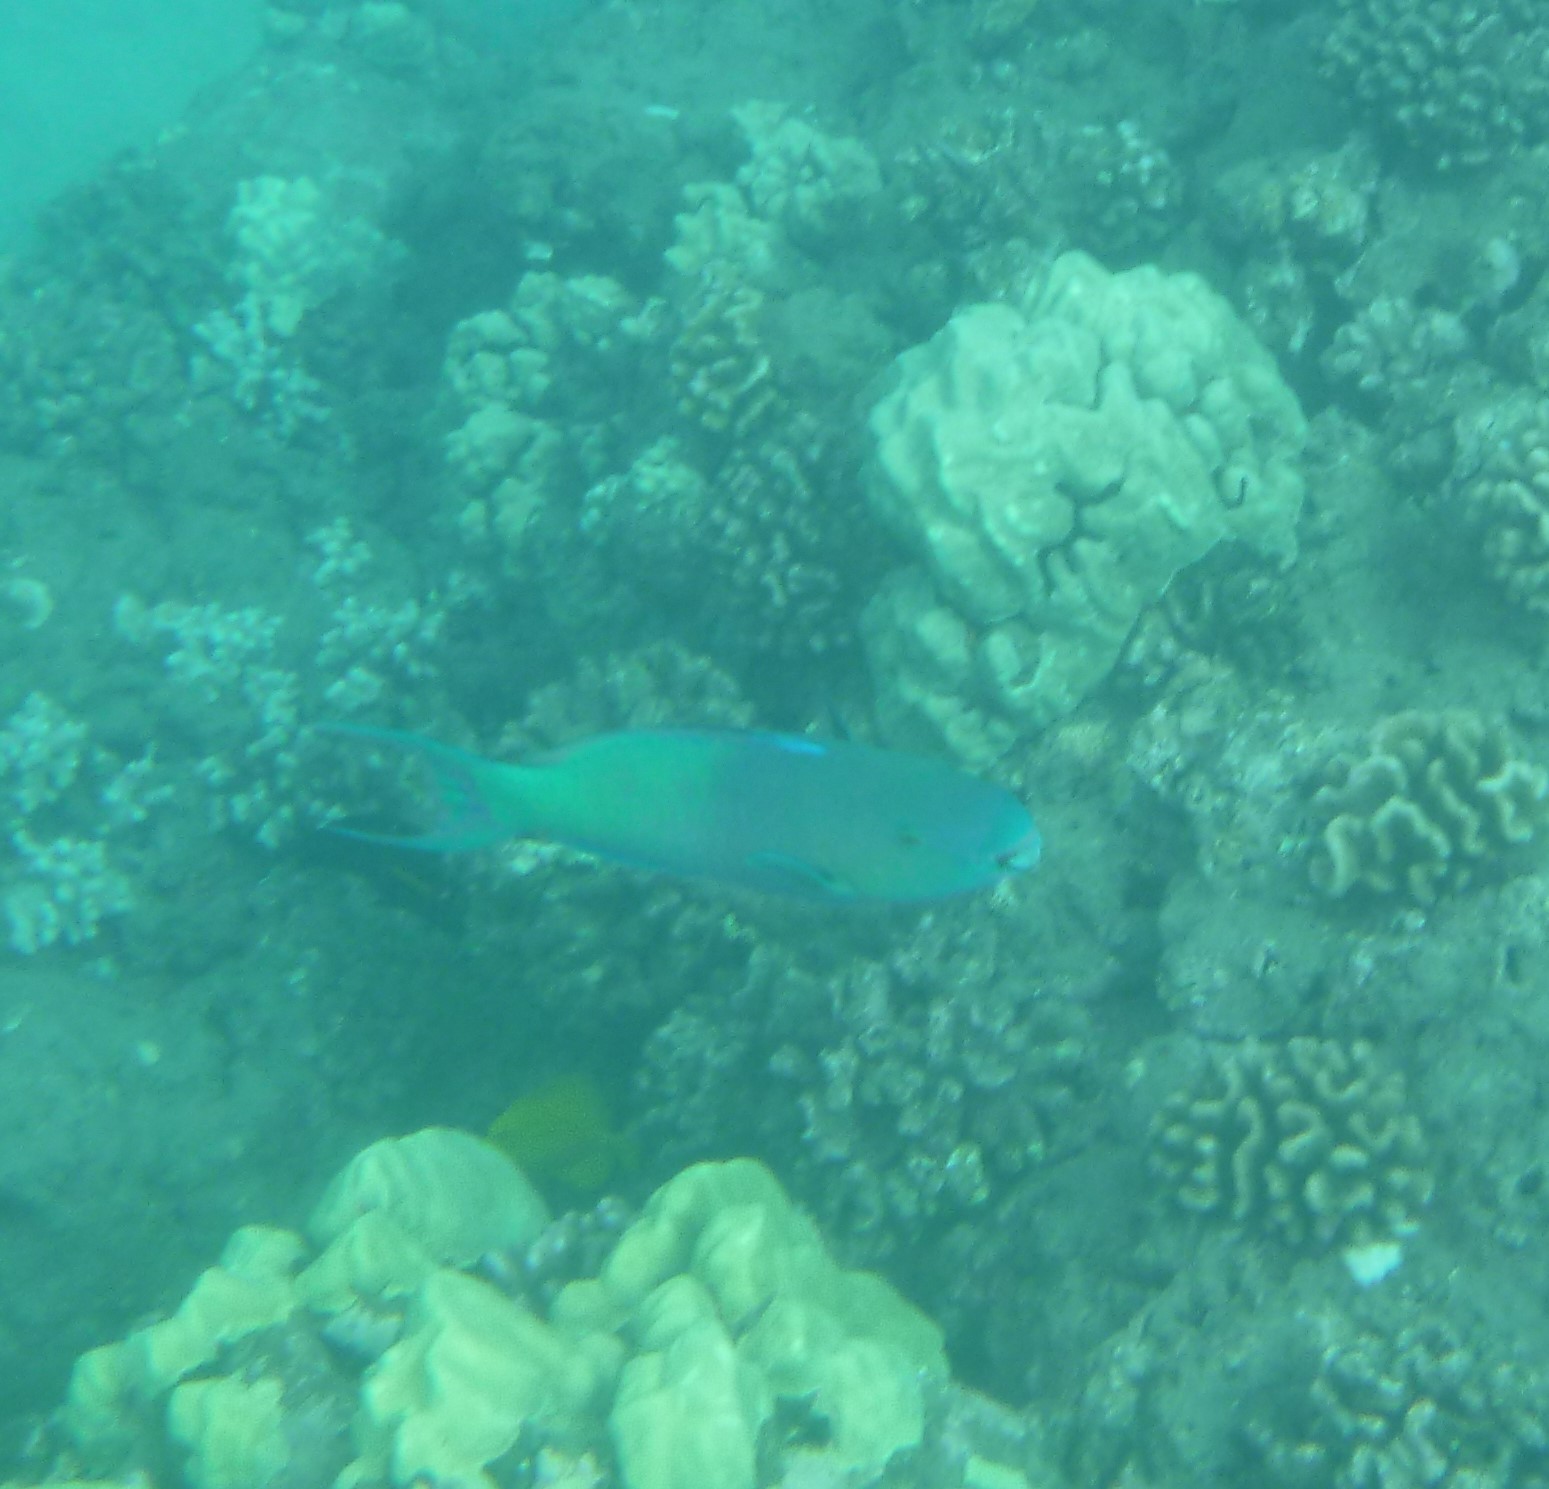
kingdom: Animalia
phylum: Chordata
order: Perciformes
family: Scaridae
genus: Scarus
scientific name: Scarus rubroviolaceus
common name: Ember parrotfish
